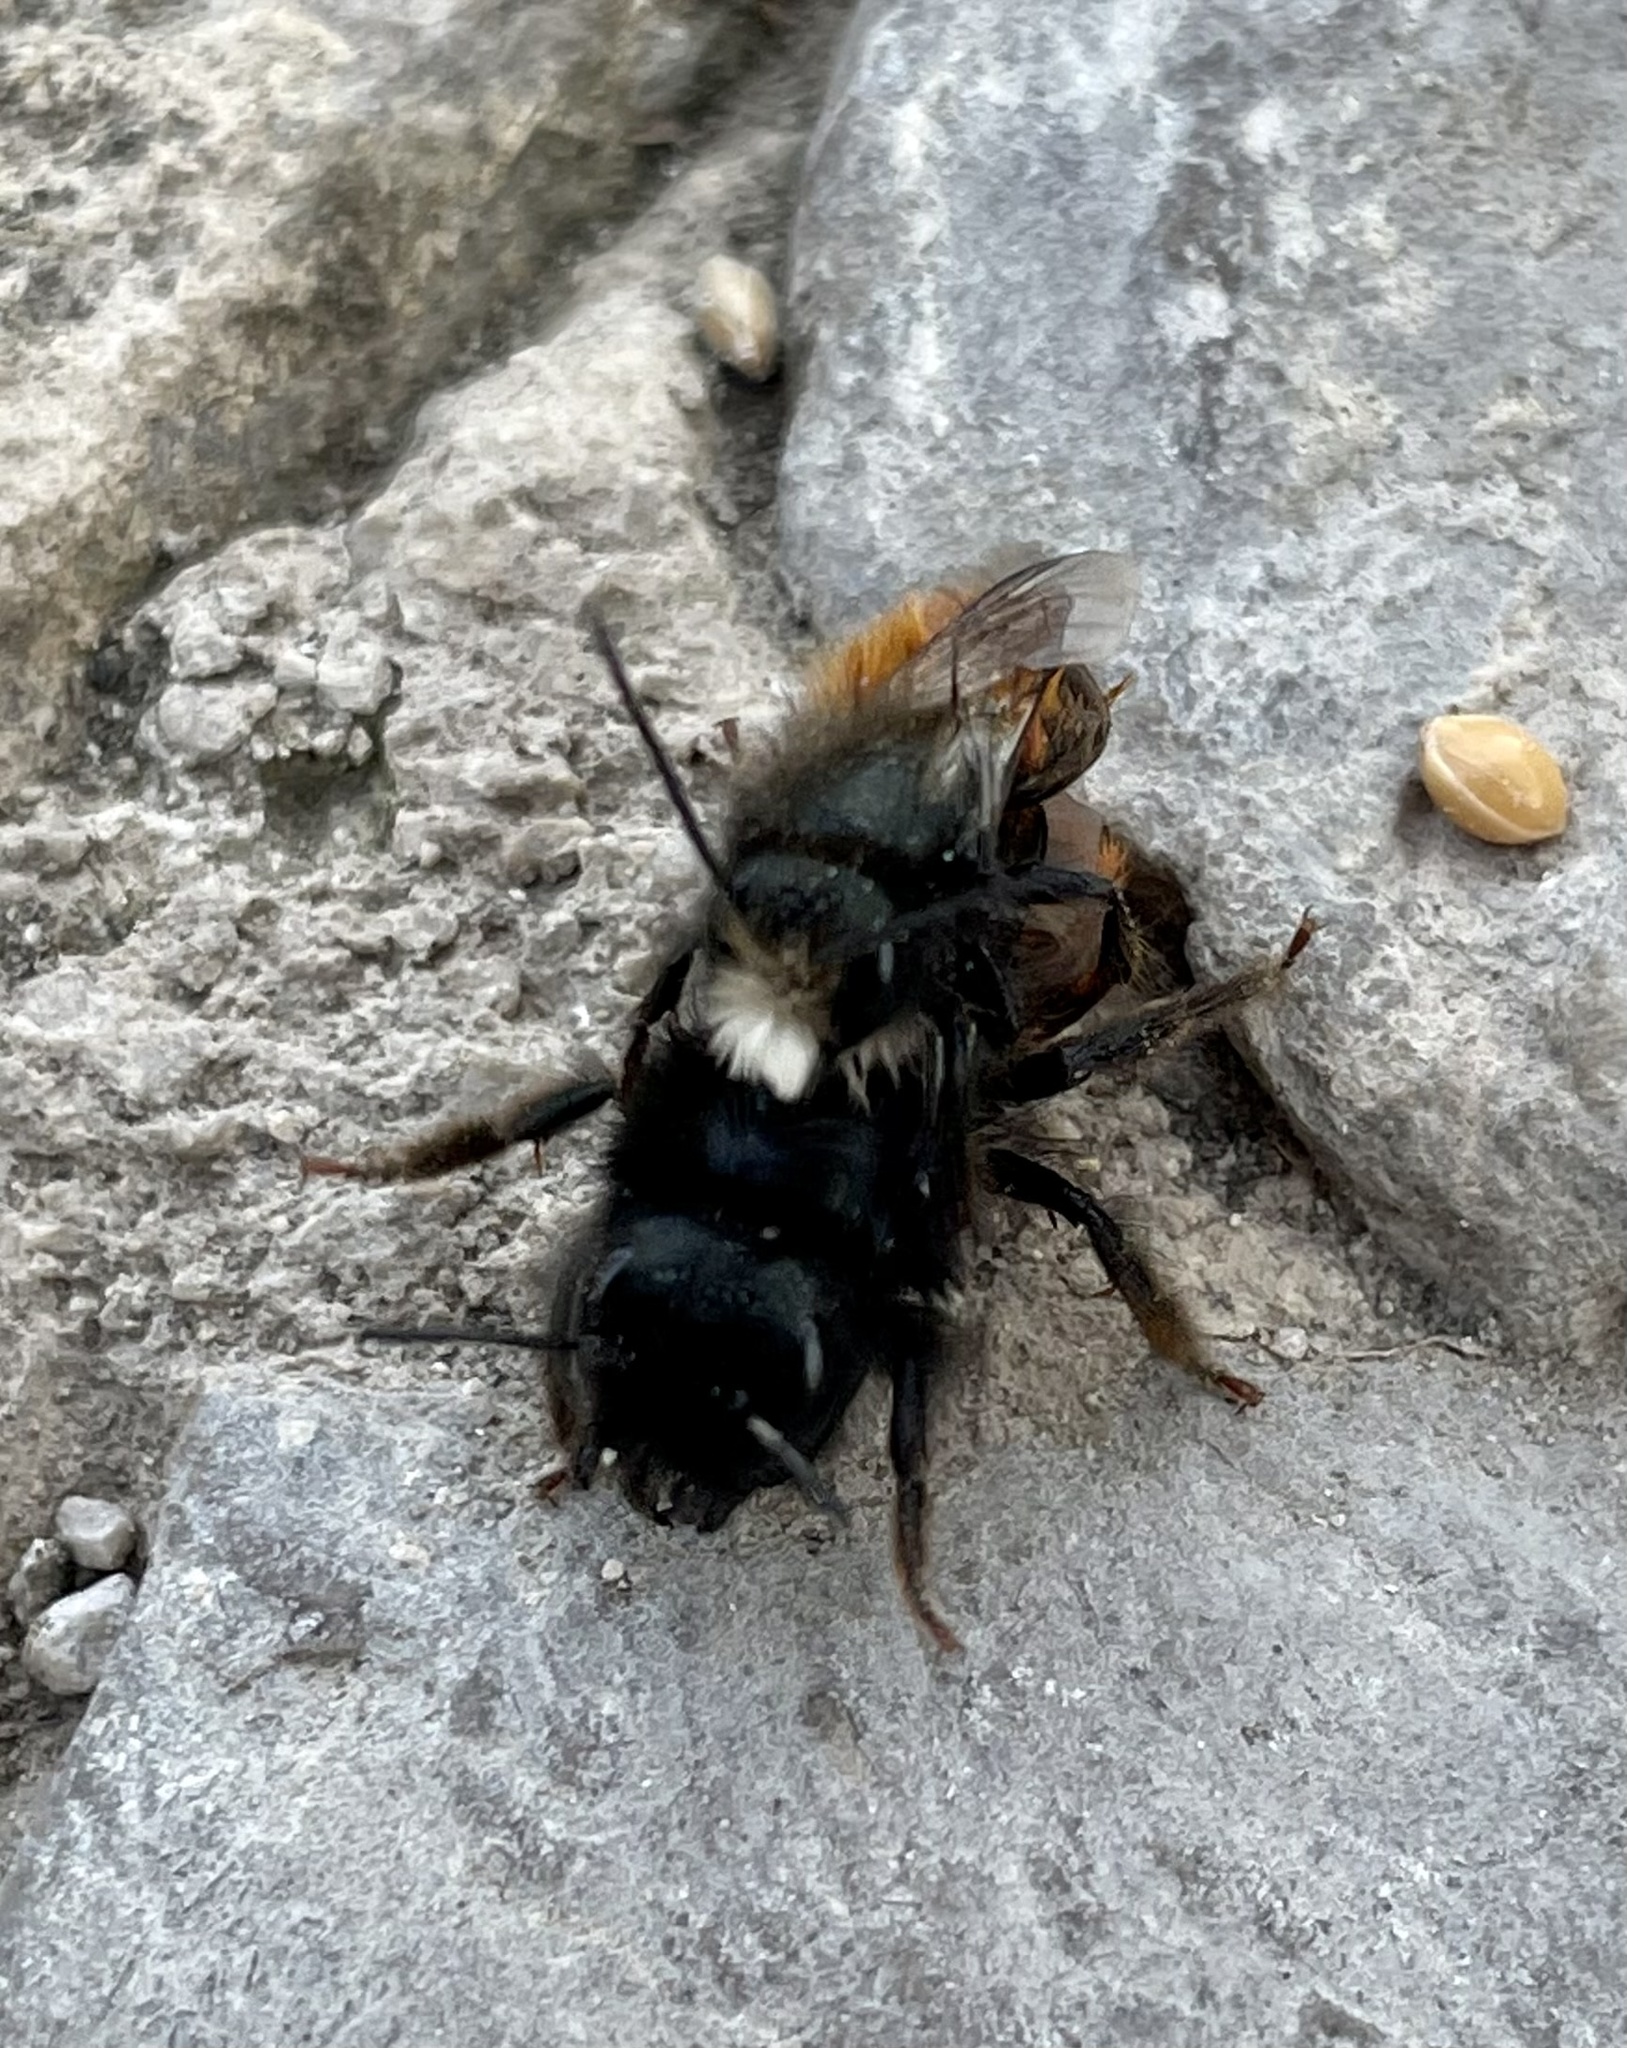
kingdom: Animalia
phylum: Arthropoda
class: Insecta
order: Hymenoptera
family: Megachilidae
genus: Osmia
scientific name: Osmia cornuta
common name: Mason bee
